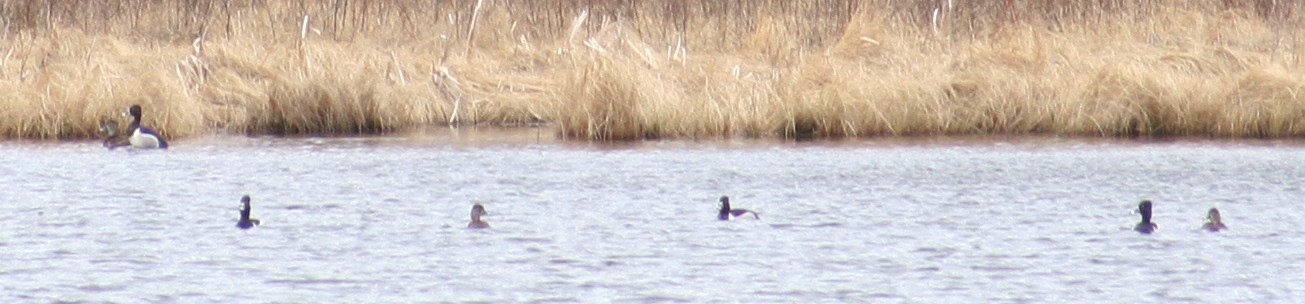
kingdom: Animalia
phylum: Chordata
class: Aves
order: Anseriformes
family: Anatidae
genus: Aythya
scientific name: Aythya collaris
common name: Ring-necked duck
